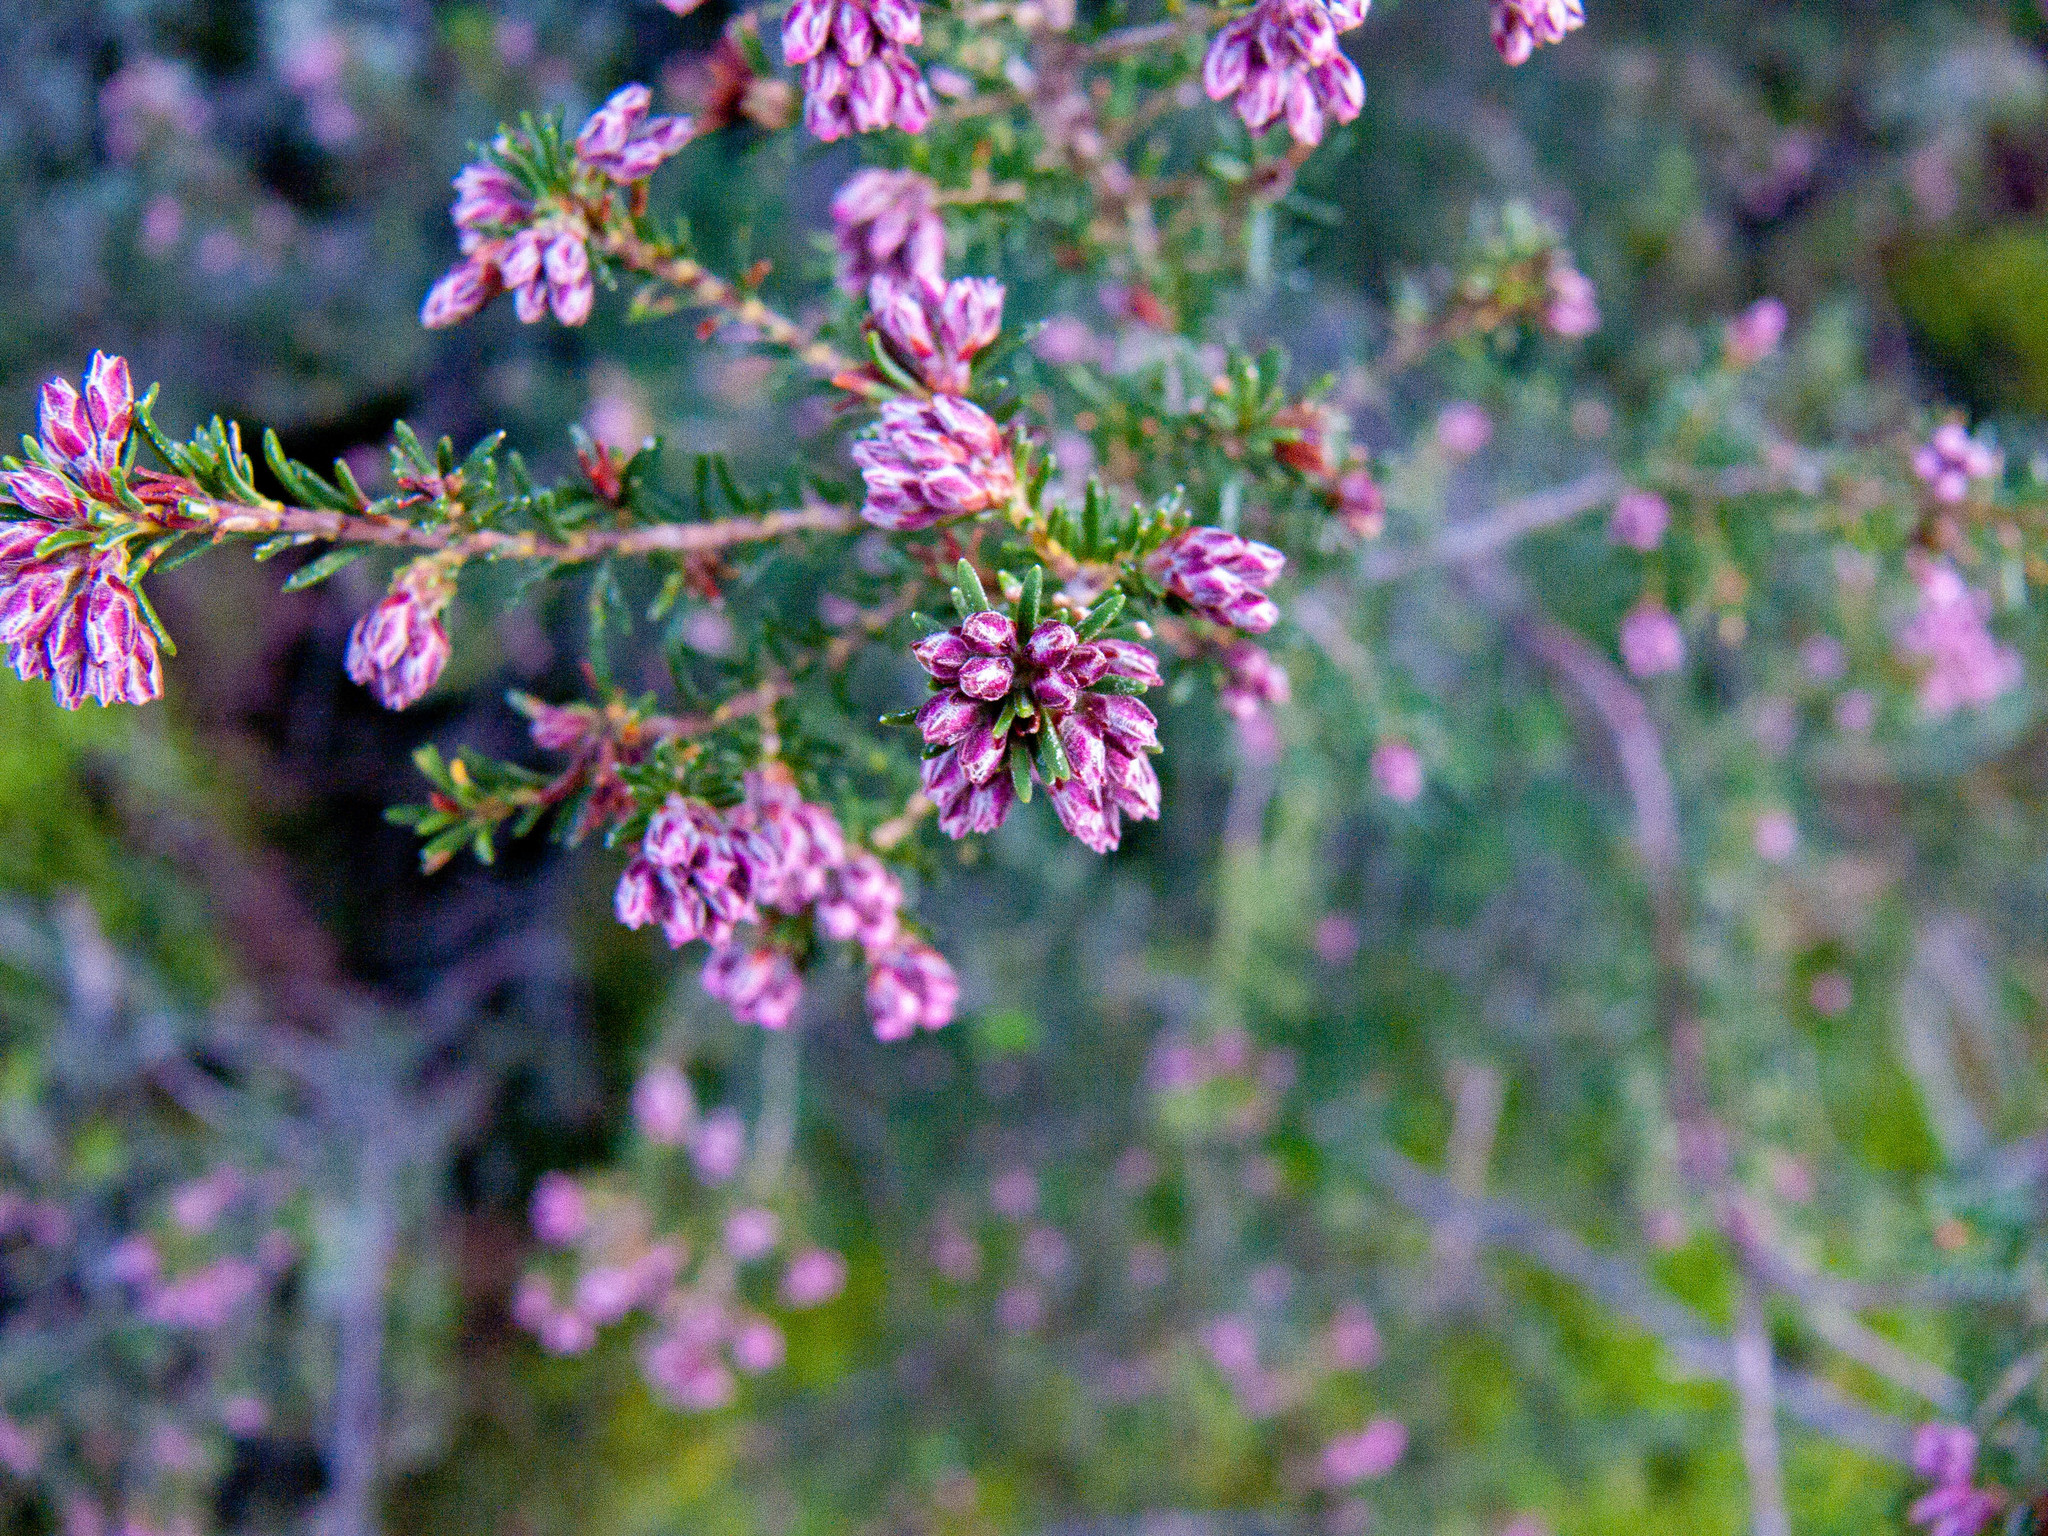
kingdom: Plantae
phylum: Tracheophyta
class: Magnoliopsida
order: Ericales
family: Ericaceae
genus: Erica
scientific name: Erica australis
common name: Spanish heath
